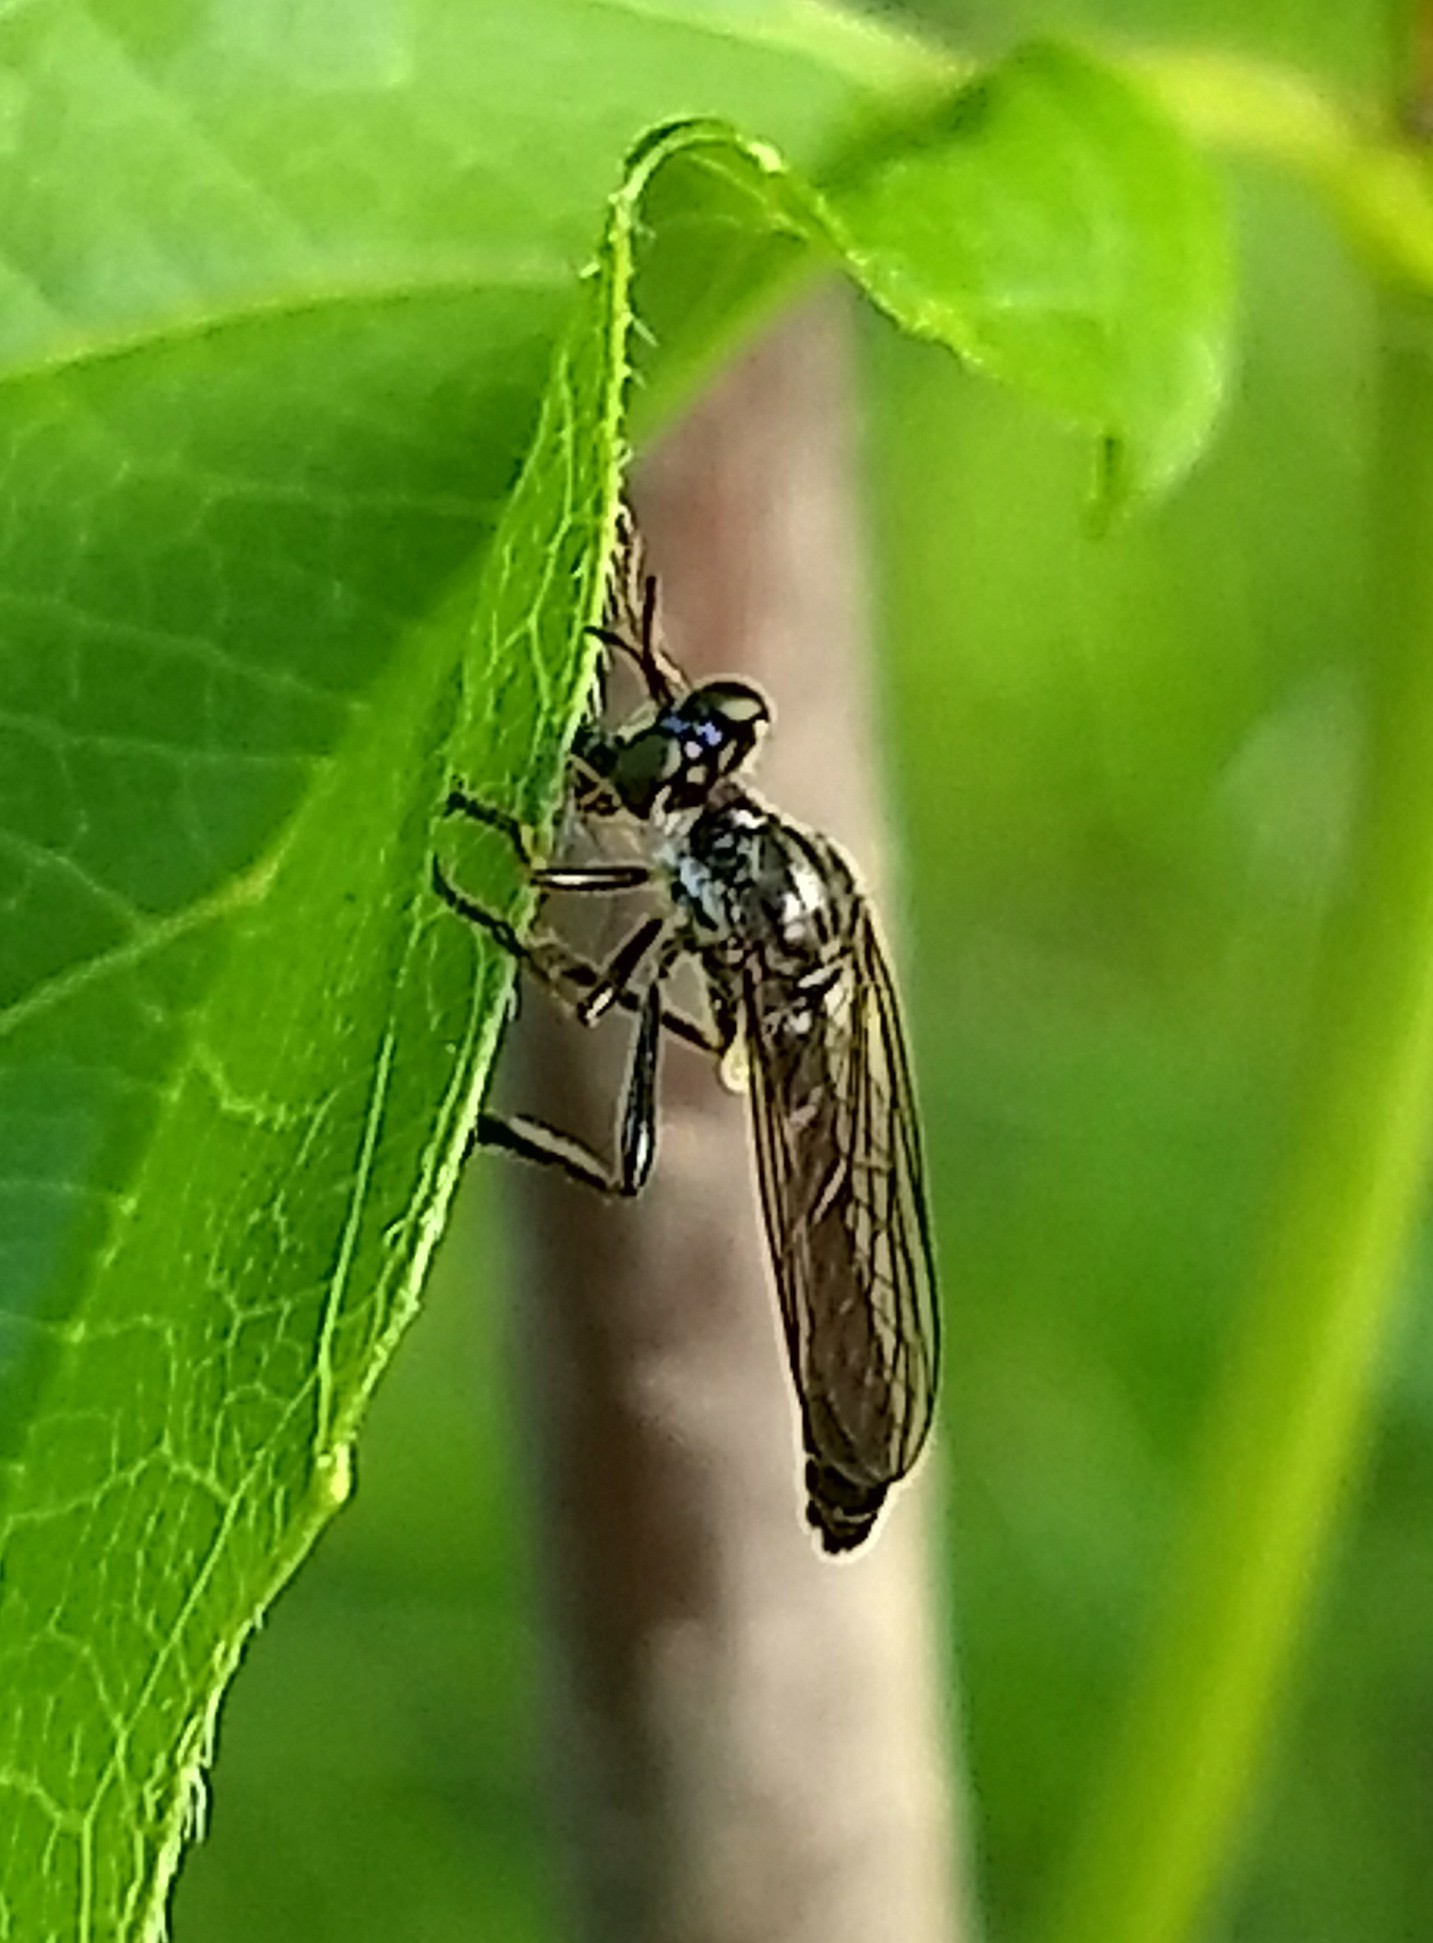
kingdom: Animalia
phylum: Arthropoda
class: Insecta
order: Diptera
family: Asilidae
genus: Dioctria
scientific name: Dioctria hyalipennis
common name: Stripe-legged robberfly
